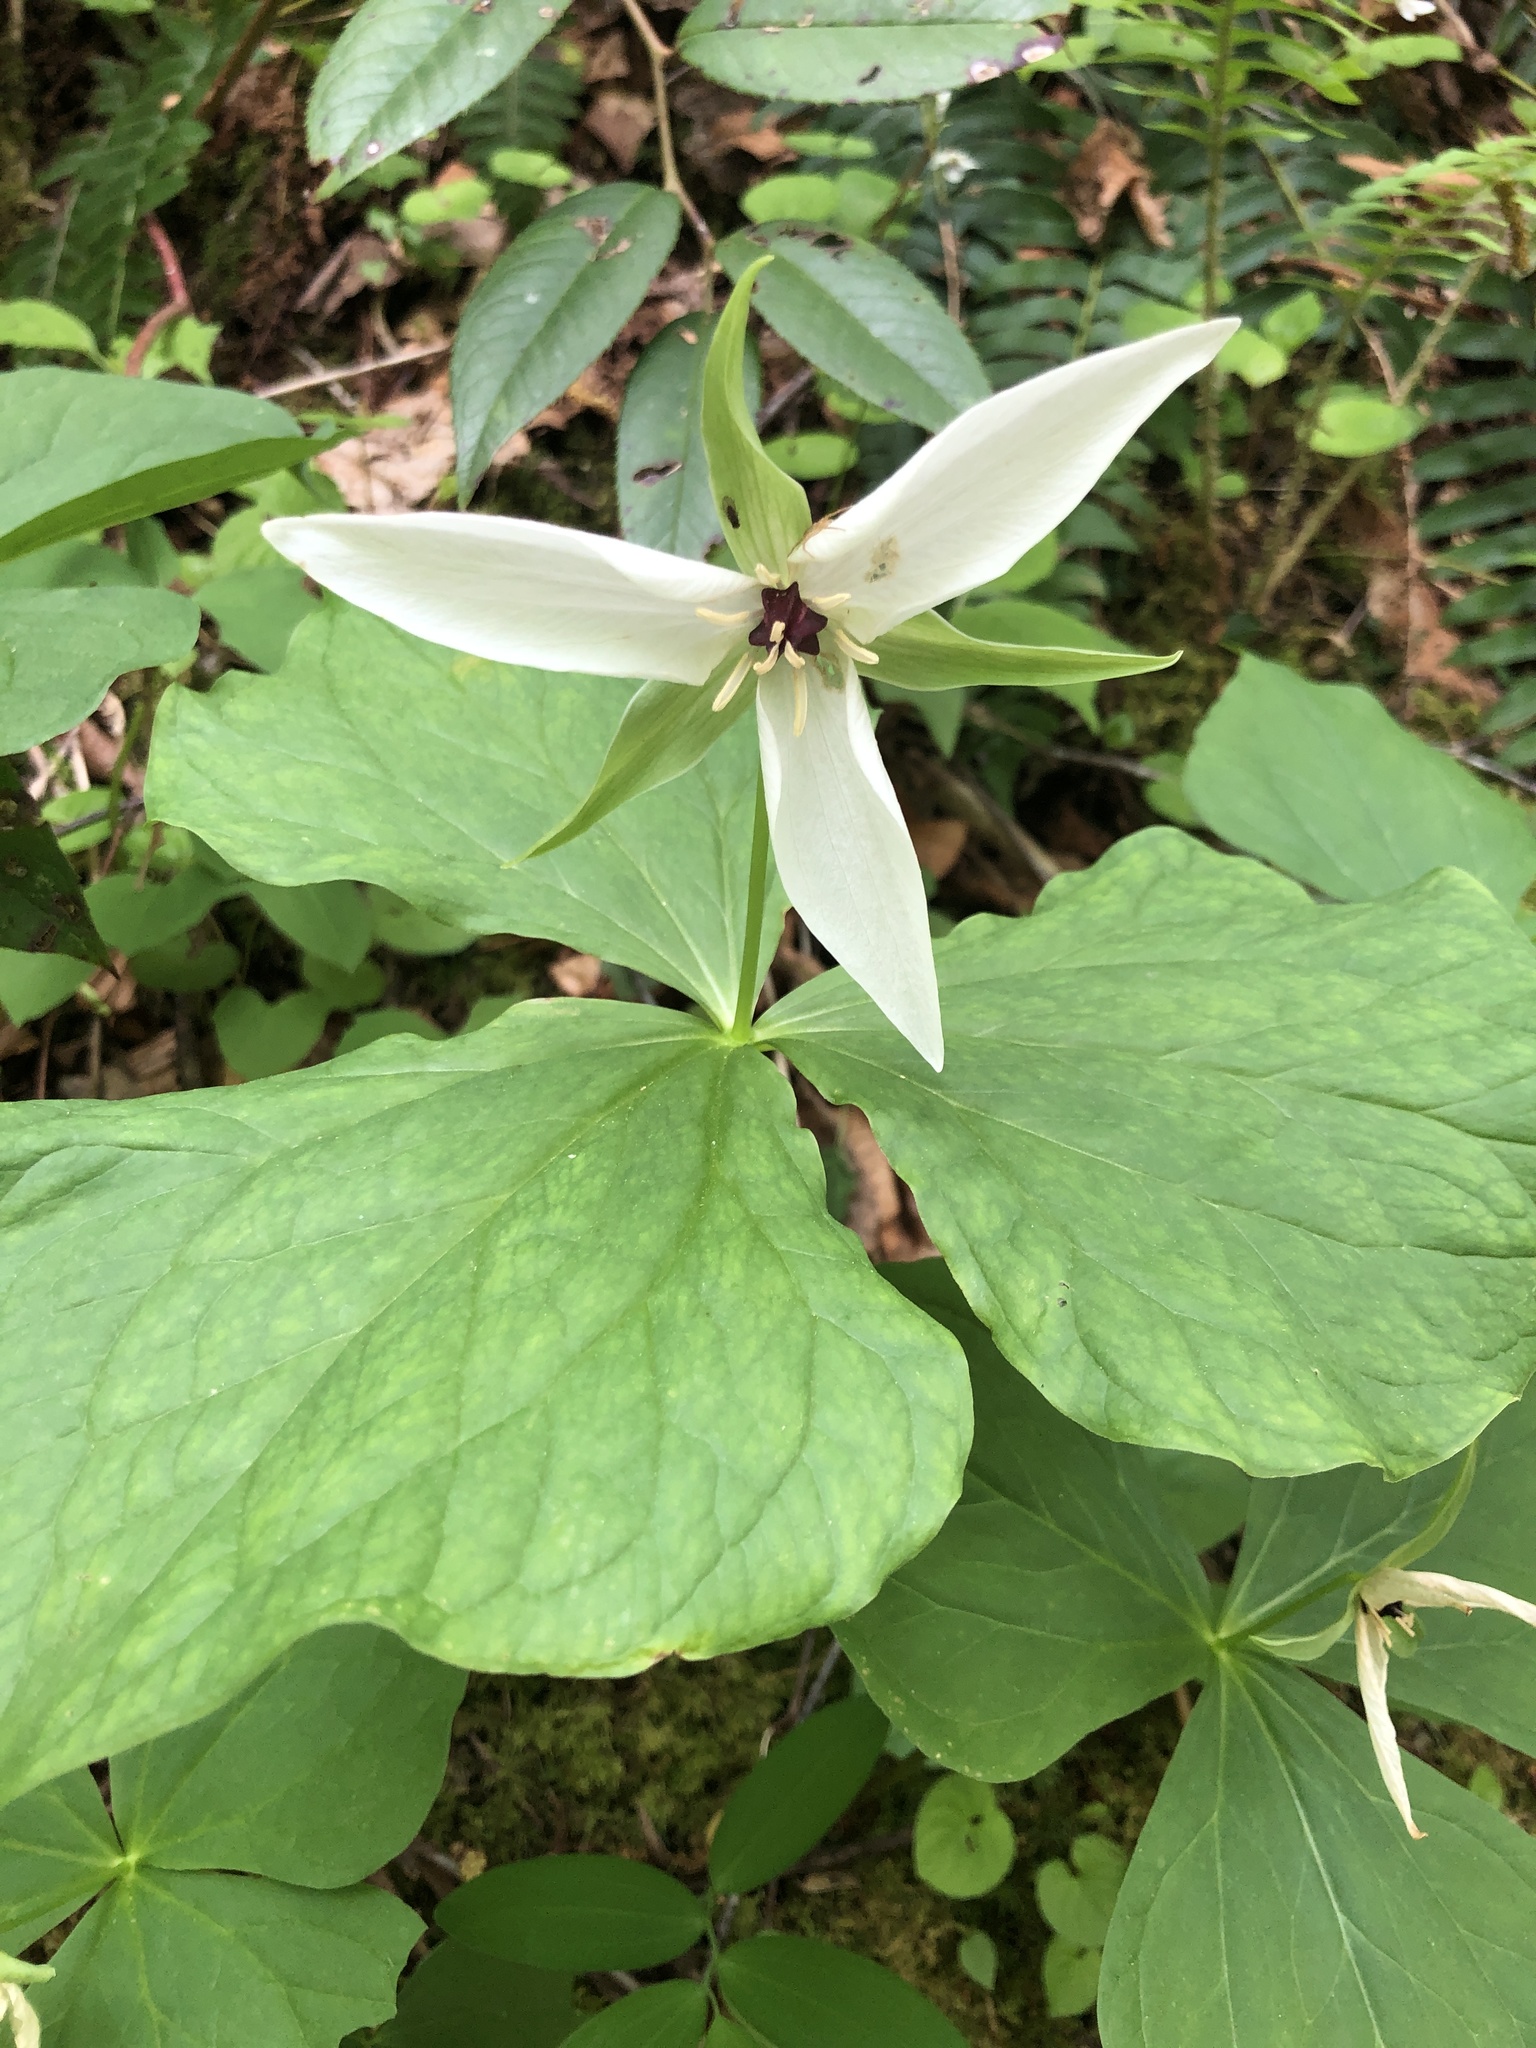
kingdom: Plantae
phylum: Tracheophyta
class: Liliopsida
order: Liliales
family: Melanthiaceae
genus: Trillium
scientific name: Trillium erectum
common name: Purple trillium
